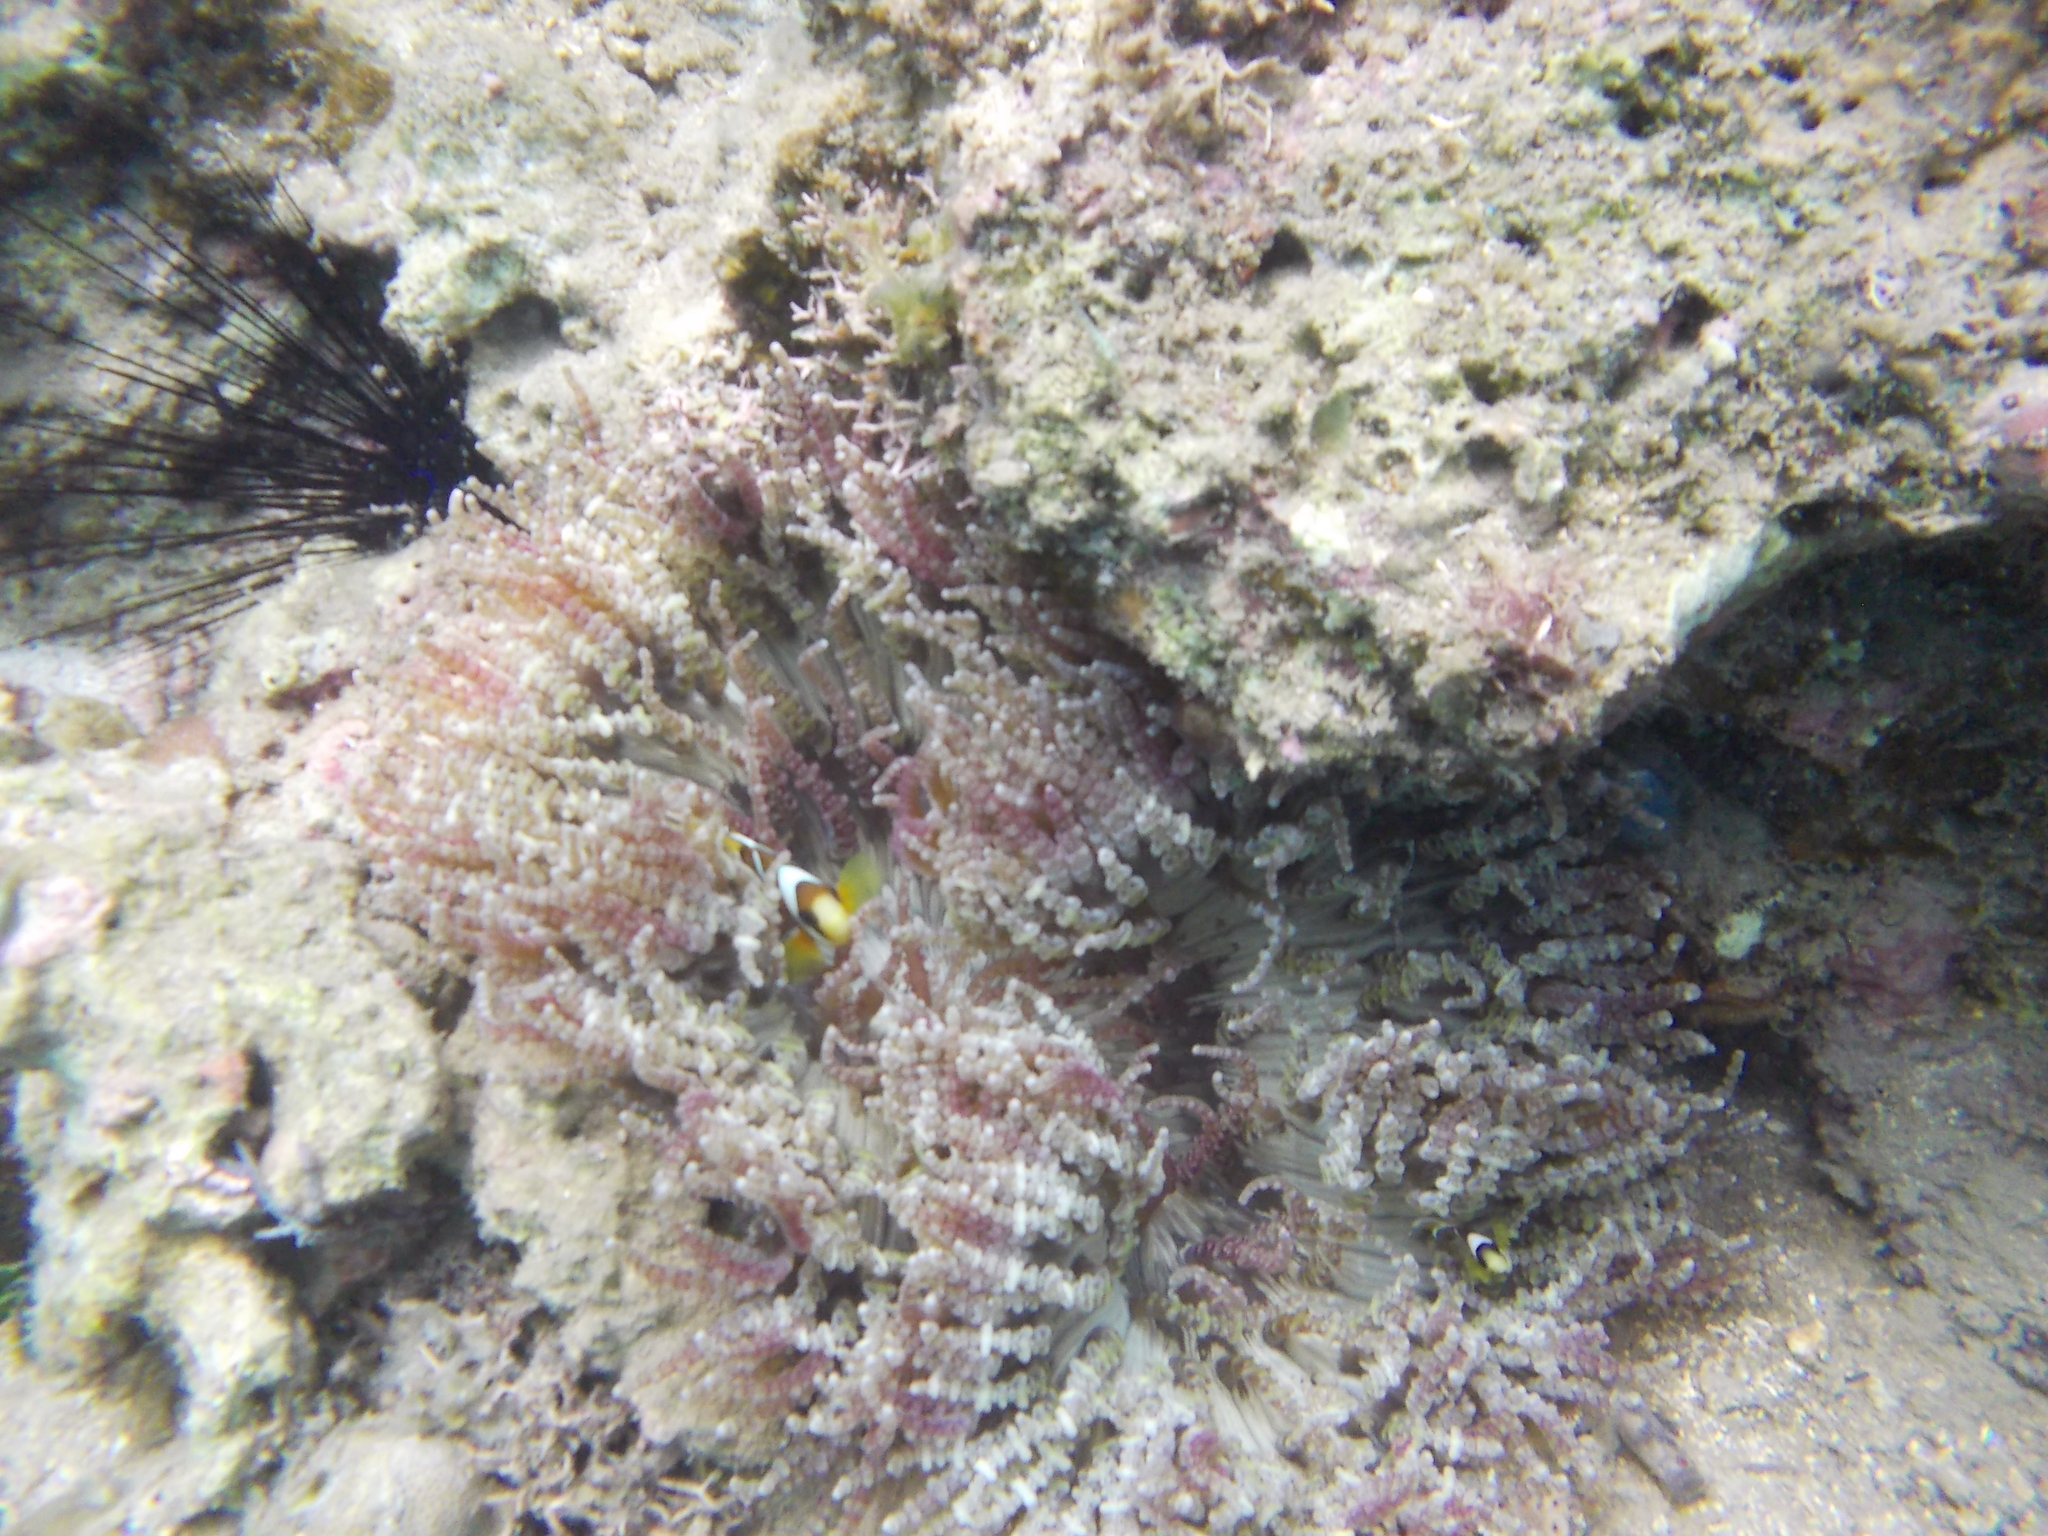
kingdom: Animalia
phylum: Cnidaria
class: Anthozoa
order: Actiniaria
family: Heteractidae
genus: Heteractis
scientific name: Heteractis aurora
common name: Beaded sea anemone
